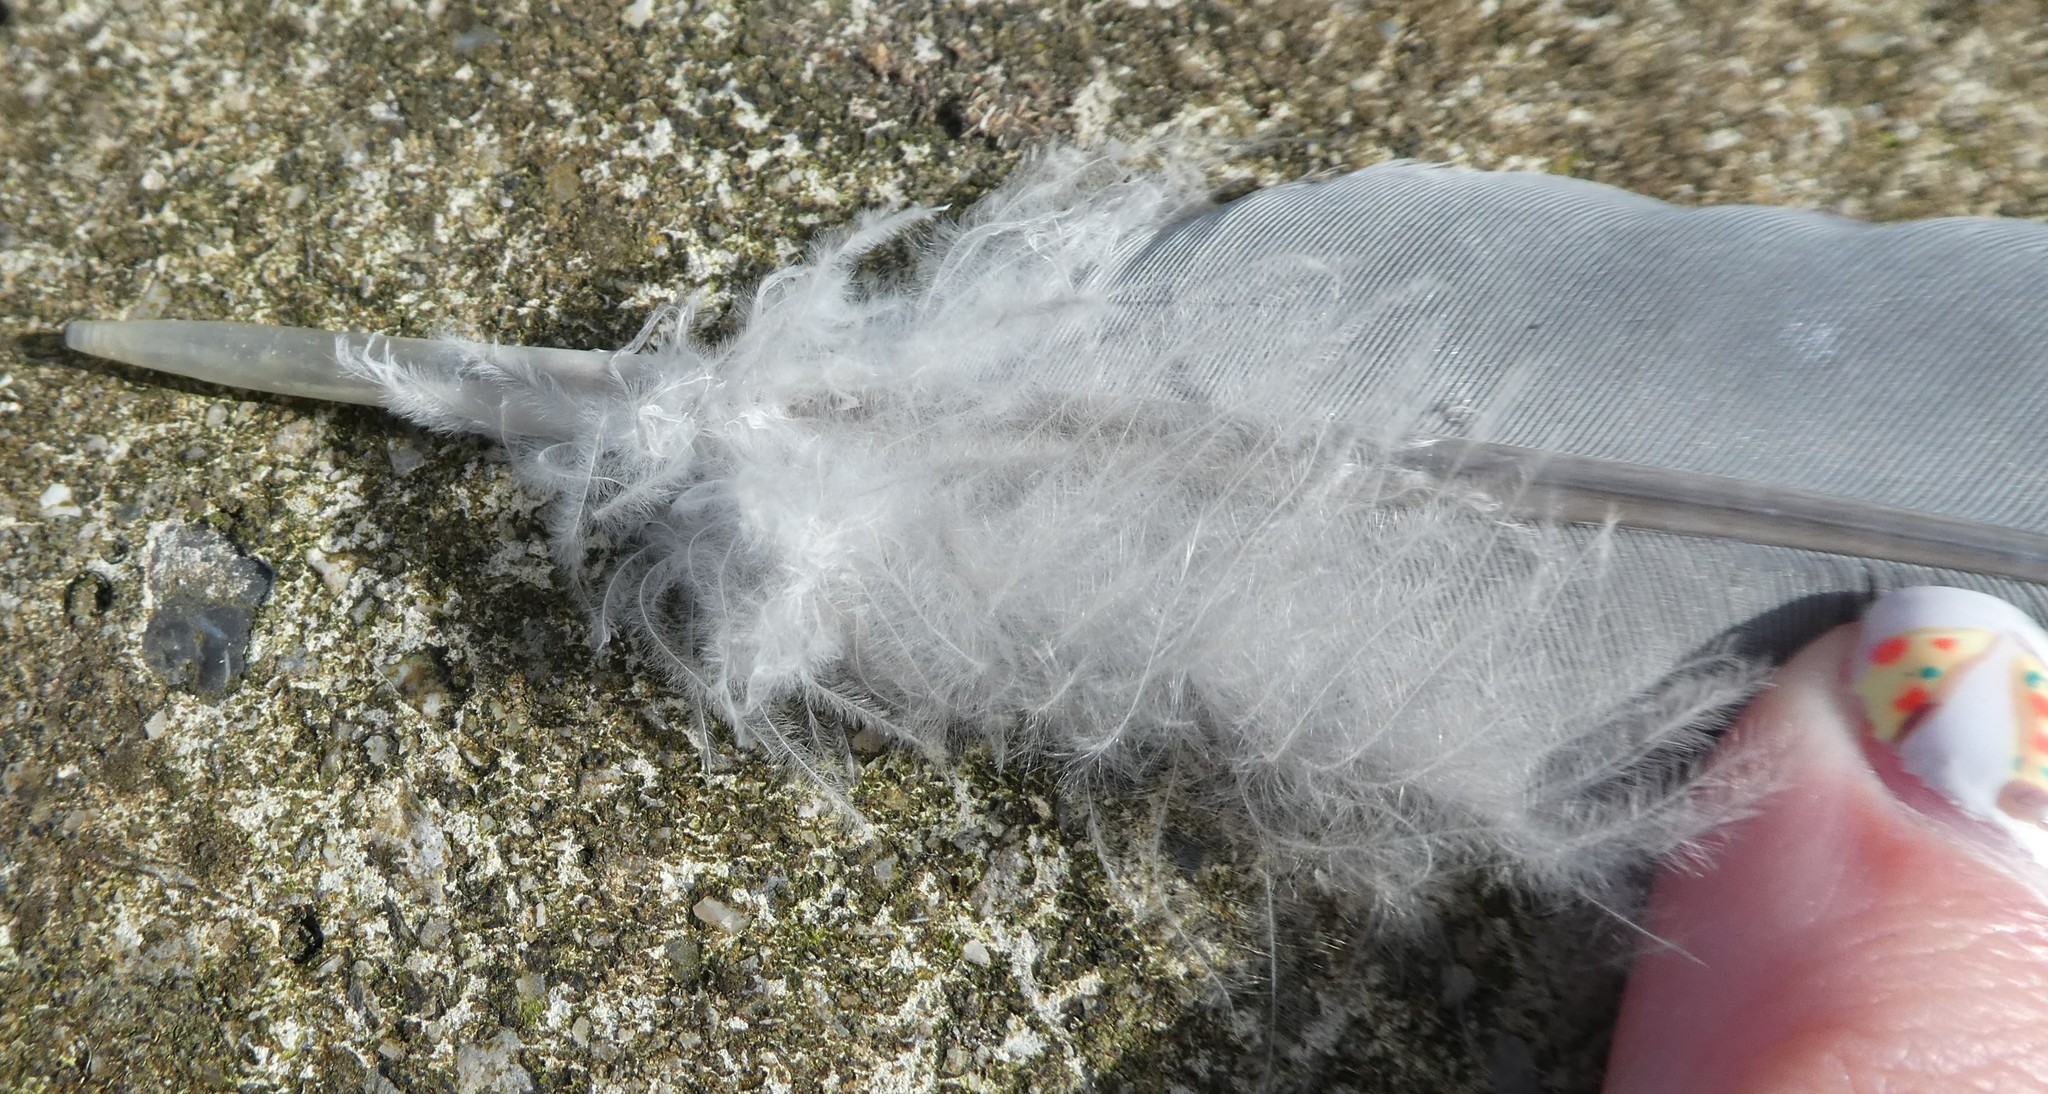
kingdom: Animalia
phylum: Chordata
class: Aves
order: Columbiformes
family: Columbidae
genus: Columba
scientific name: Columba palumbus
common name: Common wood pigeon
